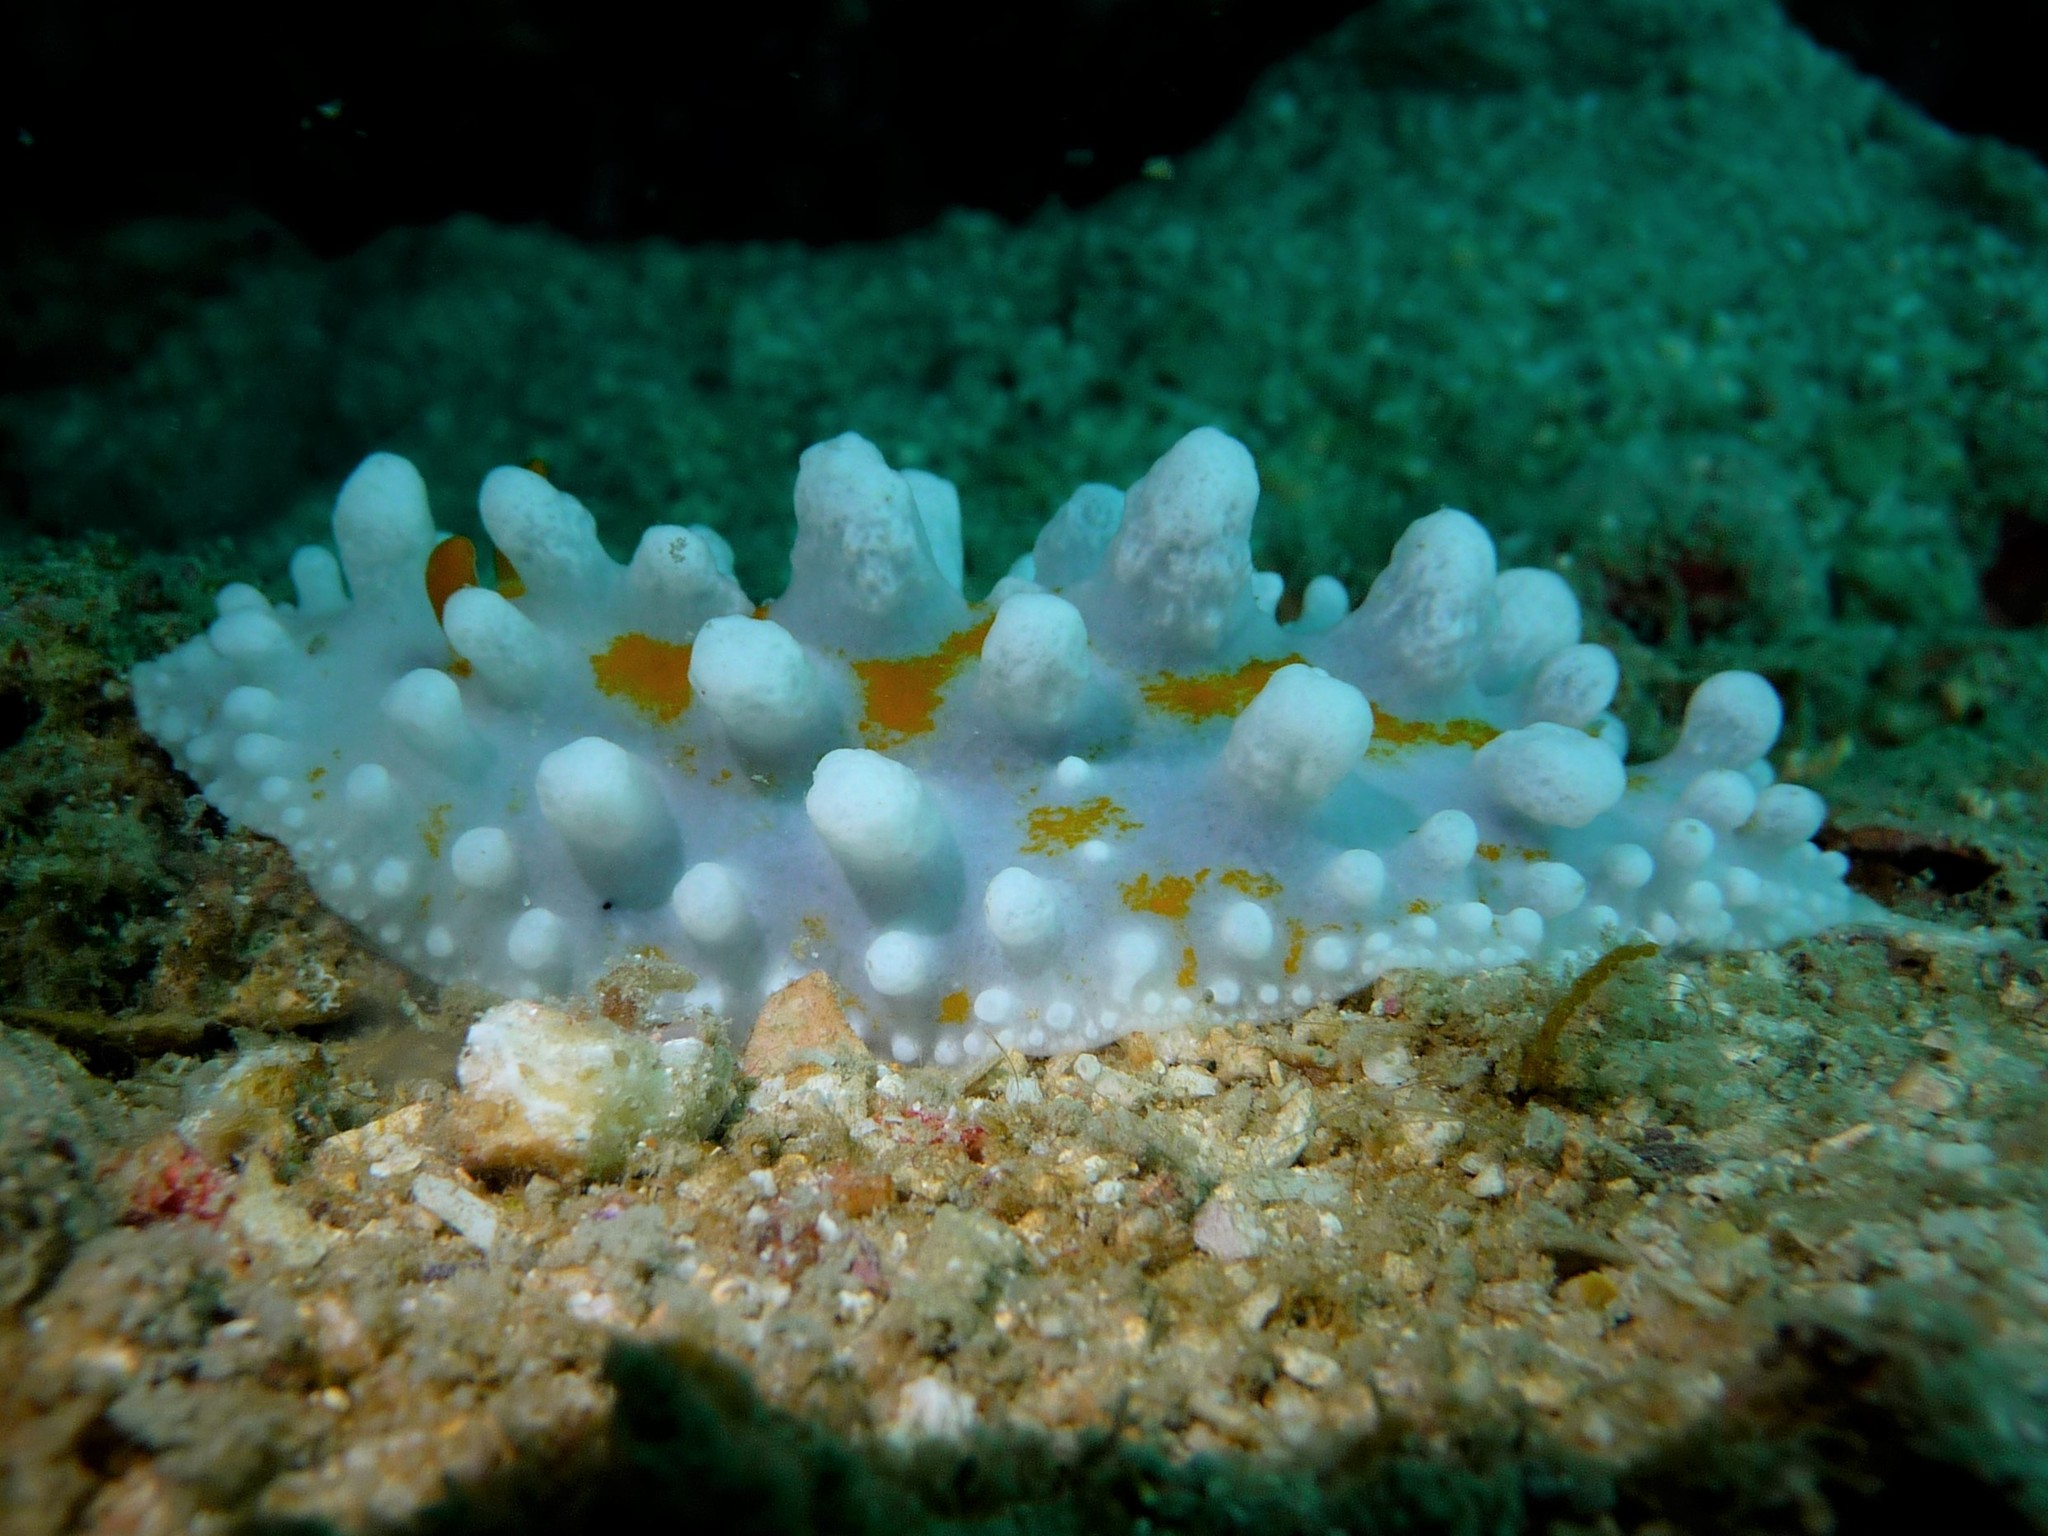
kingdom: Animalia
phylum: Mollusca
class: Gastropoda
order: Nudibranchia
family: Phyllidiidae
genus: Phyllidia
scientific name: Phyllidia ocellata
